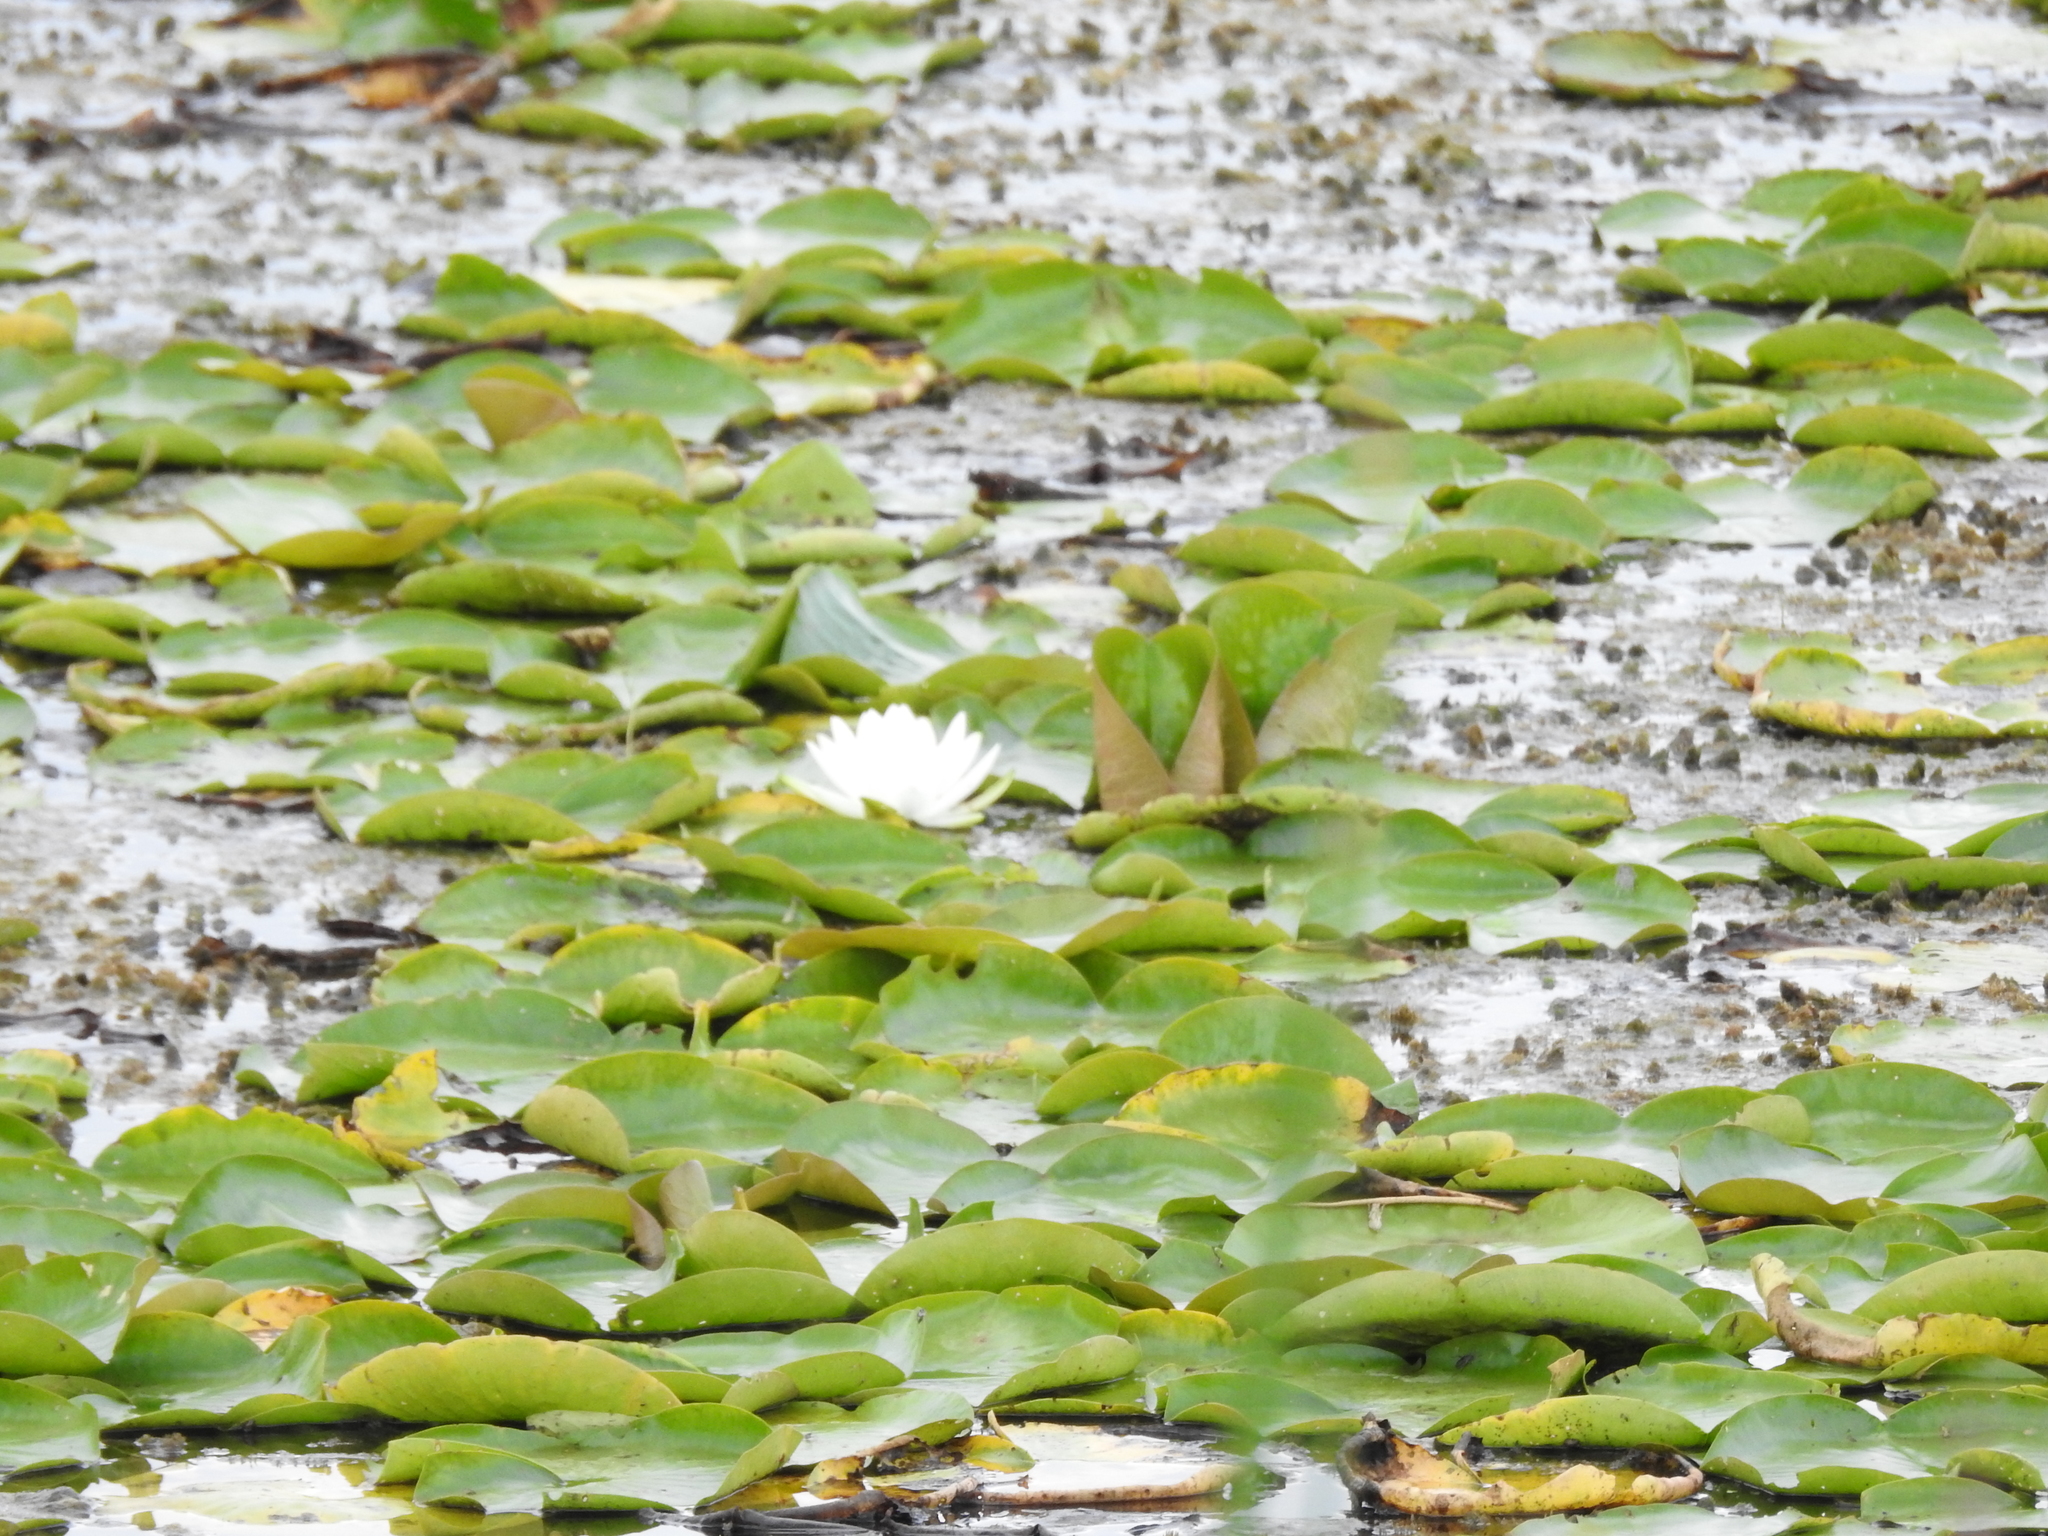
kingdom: Plantae
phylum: Tracheophyta
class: Magnoliopsida
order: Nymphaeales
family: Nymphaeaceae
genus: Nymphaea
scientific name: Nymphaea odorata
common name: Fragrant water-lily
